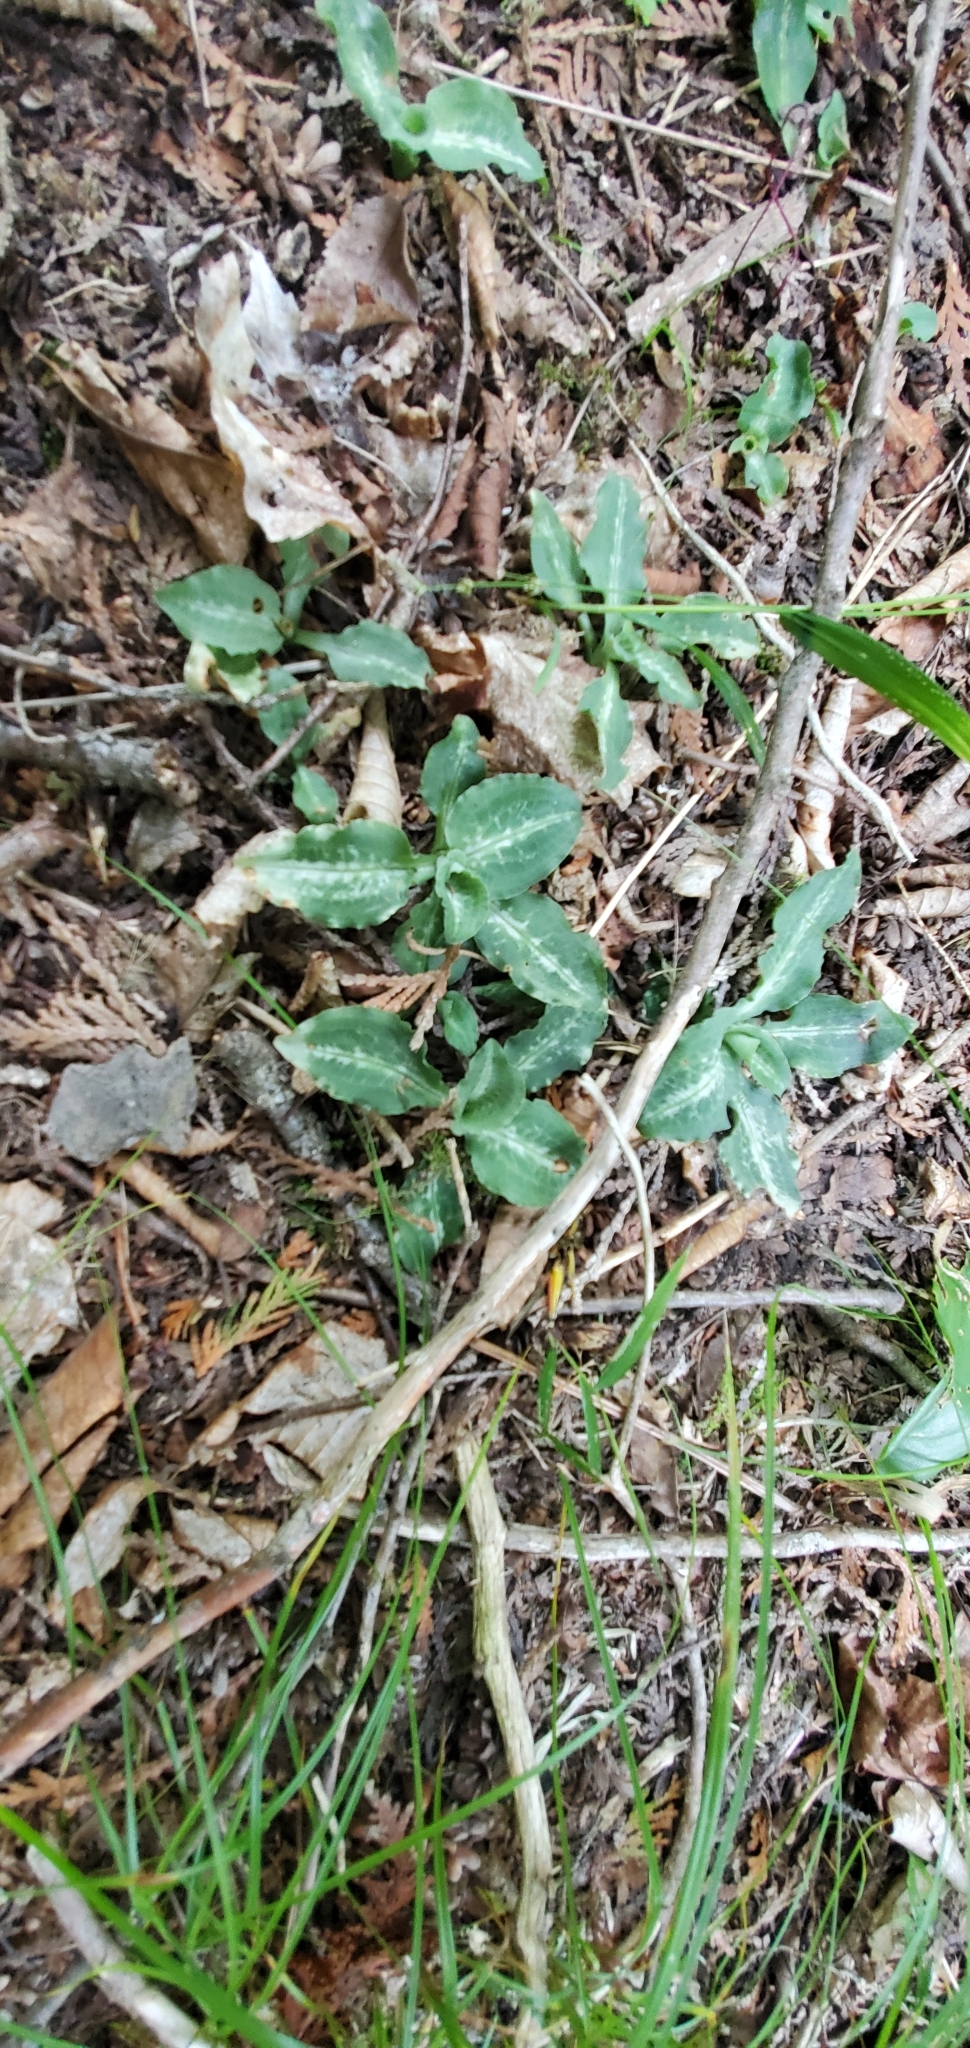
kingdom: Plantae
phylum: Tracheophyta
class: Liliopsida
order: Asparagales
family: Orchidaceae
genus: Goodyera
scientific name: Goodyera oblongifolia
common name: Giant rattlesnake-plantain
